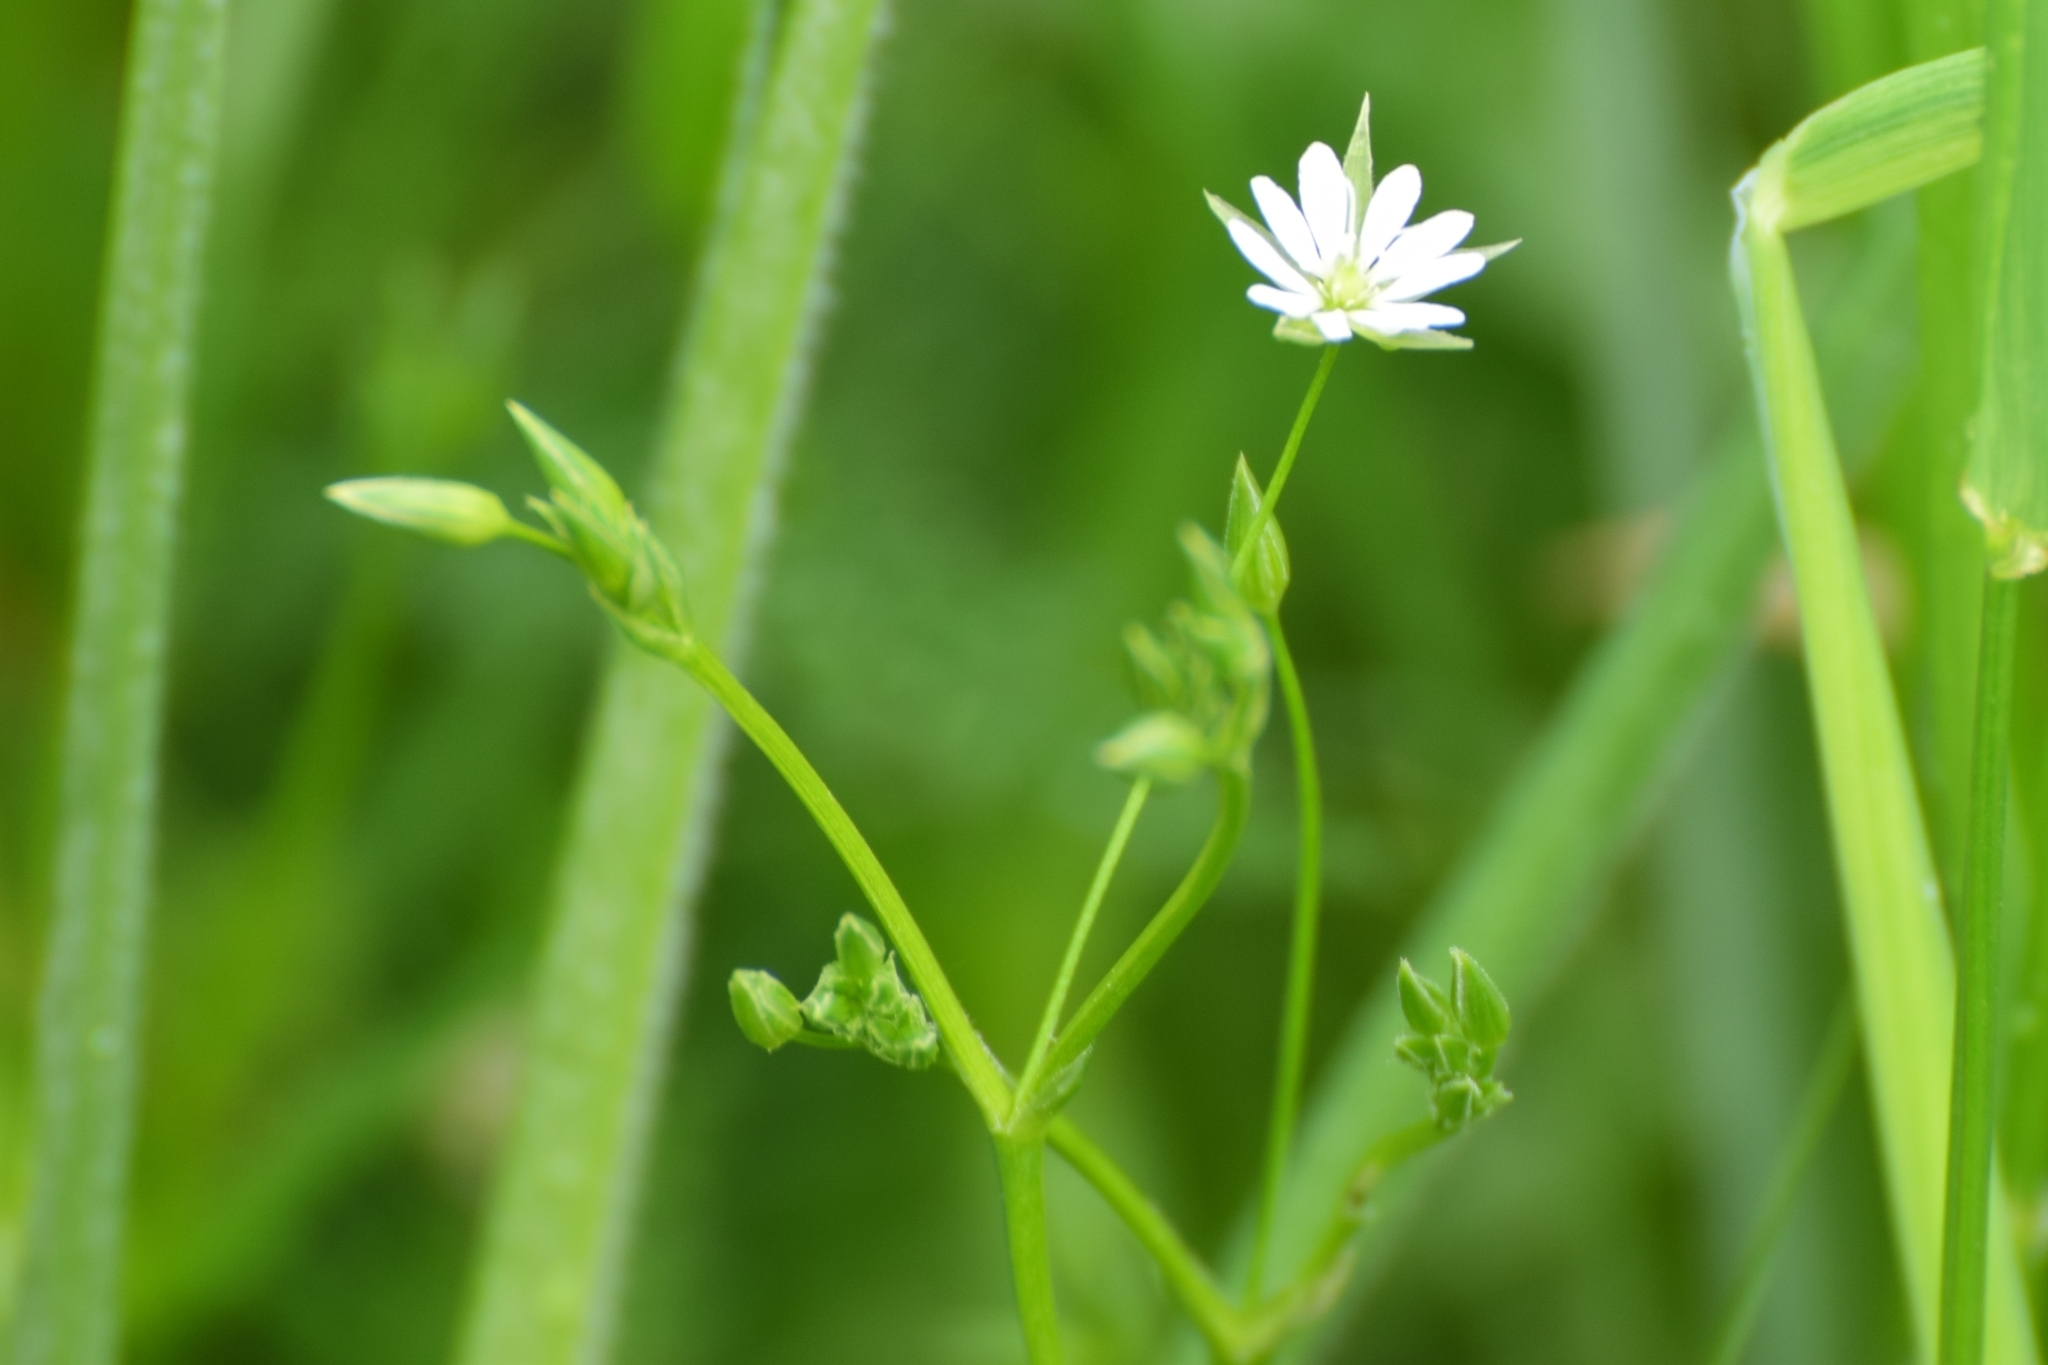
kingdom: Plantae
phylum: Tracheophyta
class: Magnoliopsida
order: Caryophyllales
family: Caryophyllaceae
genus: Stellaria
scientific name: Stellaria alsine
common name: Bog stitchwort
